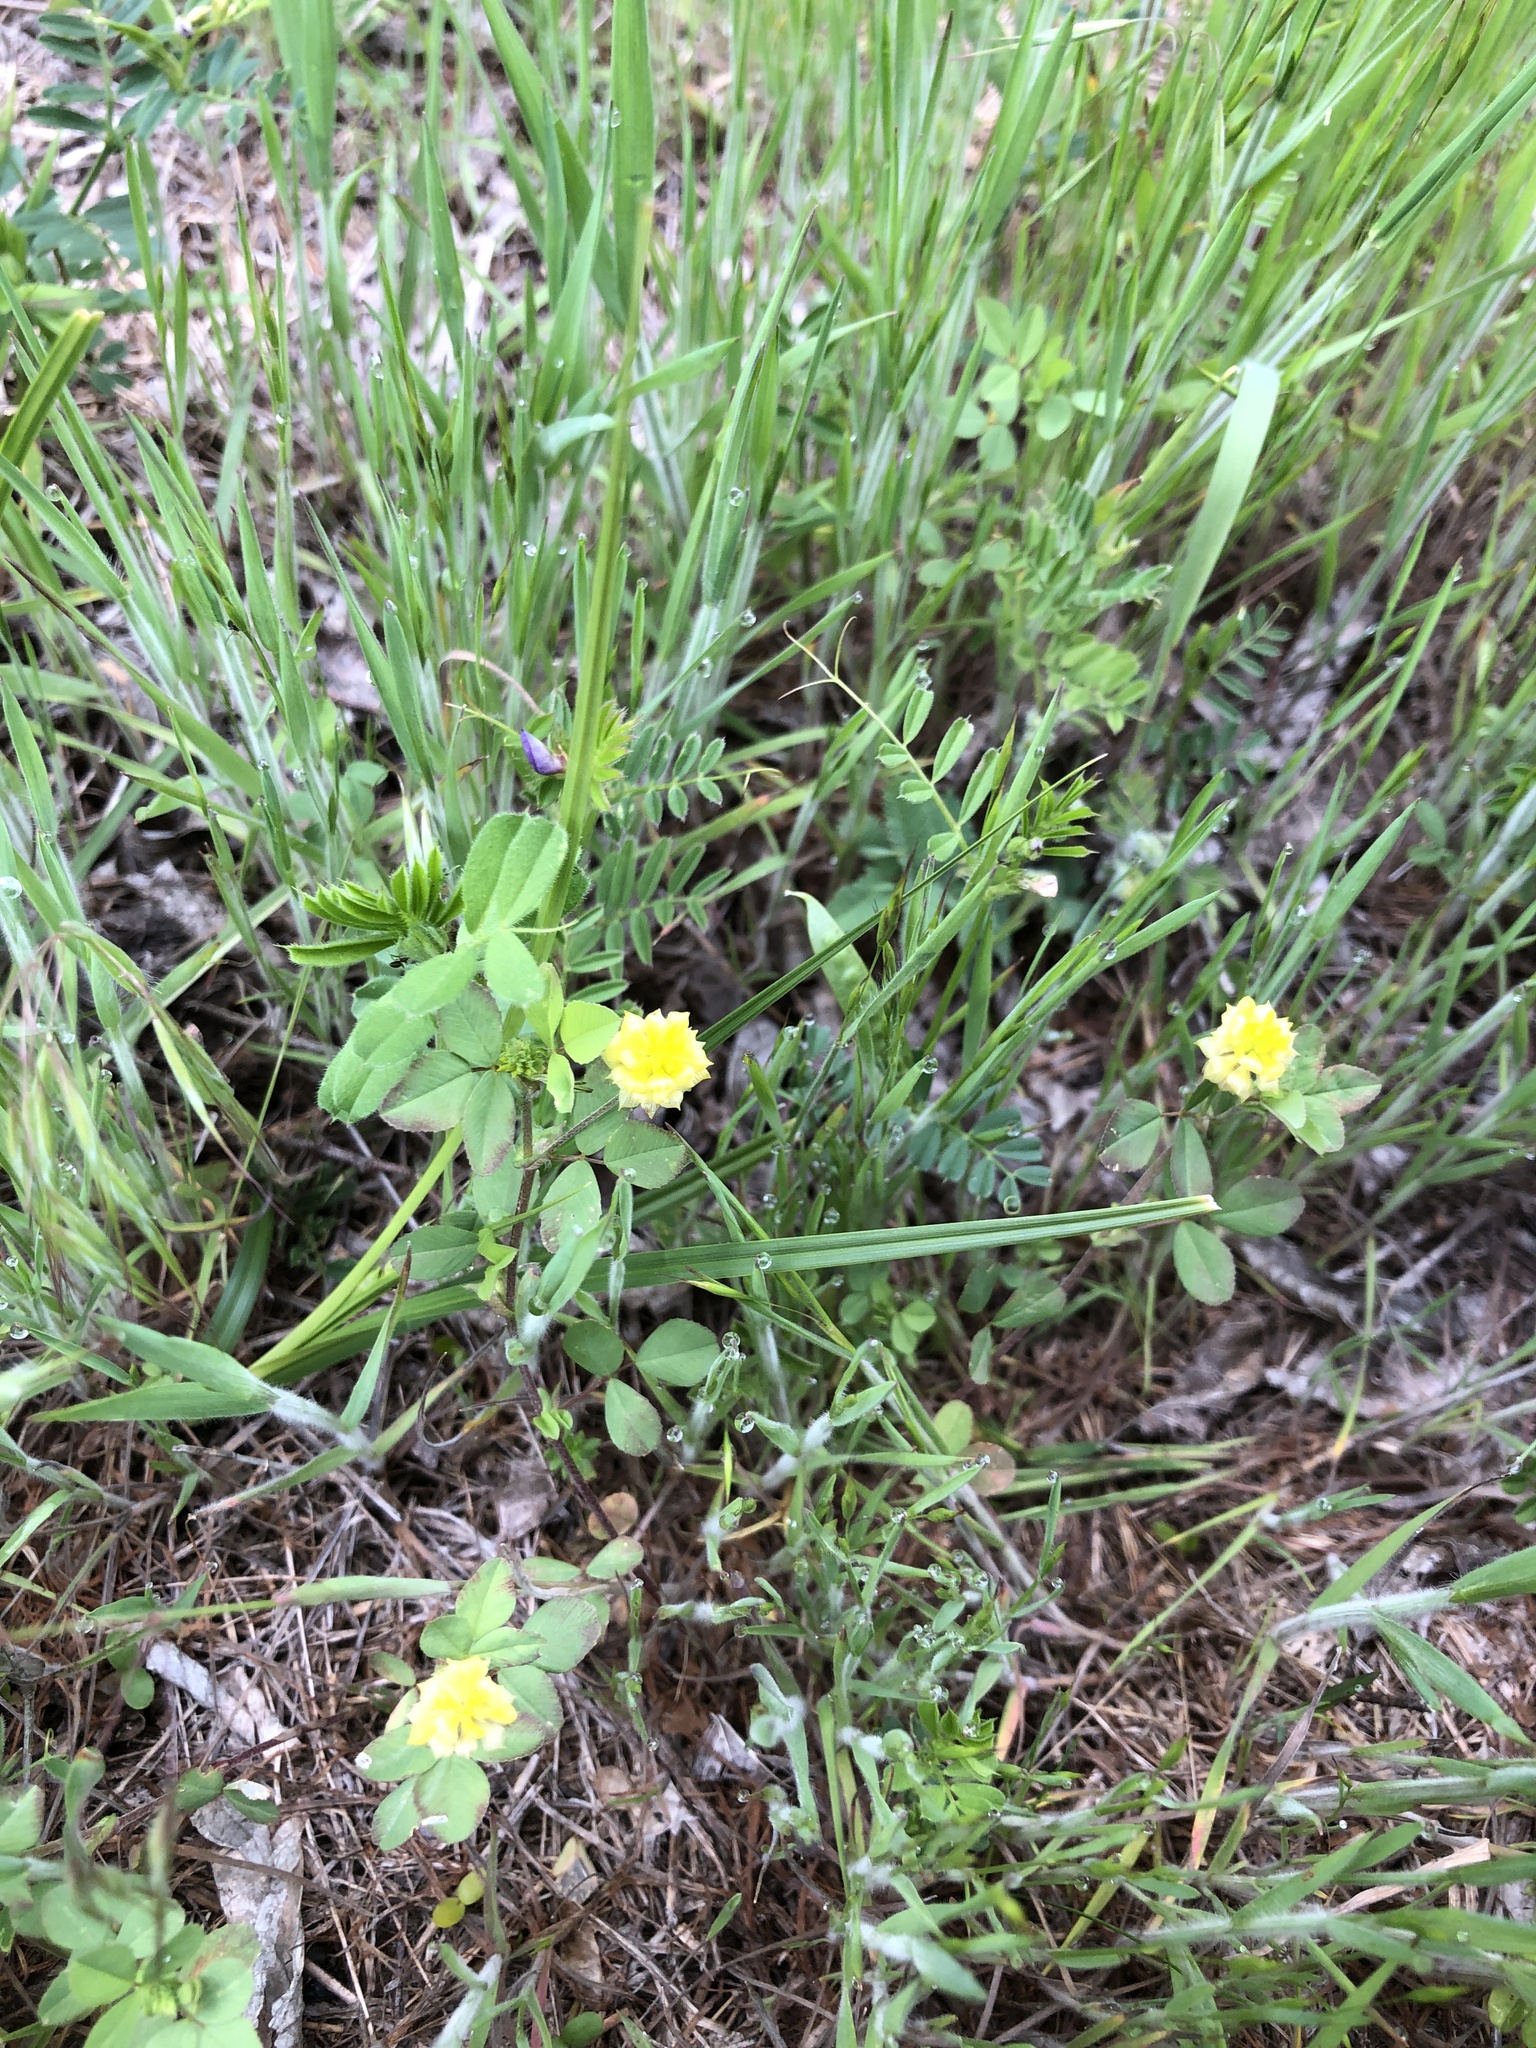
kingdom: Plantae
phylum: Tracheophyta
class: Magnoliopsida
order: Fabales
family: Fabaceae
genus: Trifolium
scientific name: Trifolium campestre
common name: Field clover
